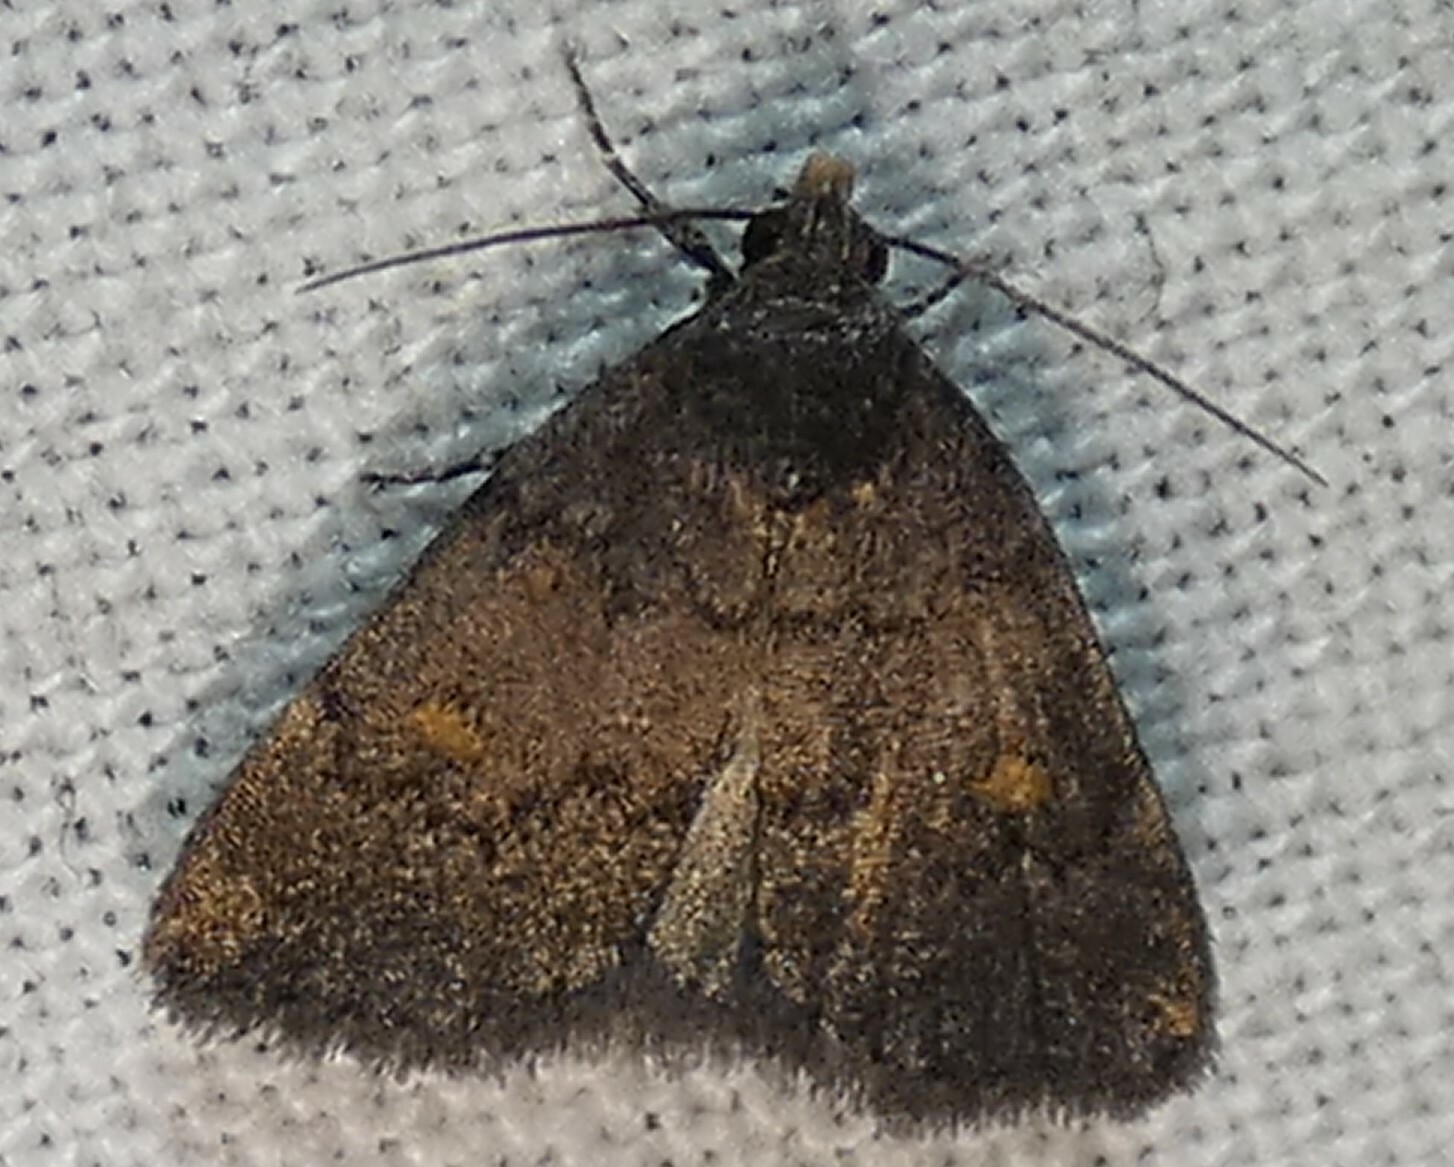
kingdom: Animalia
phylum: Arthropoda
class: Insecta
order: Lepidoptera
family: Erebidae
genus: Idia
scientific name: Idia diminuendis
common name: Orange-spotted idia moth
